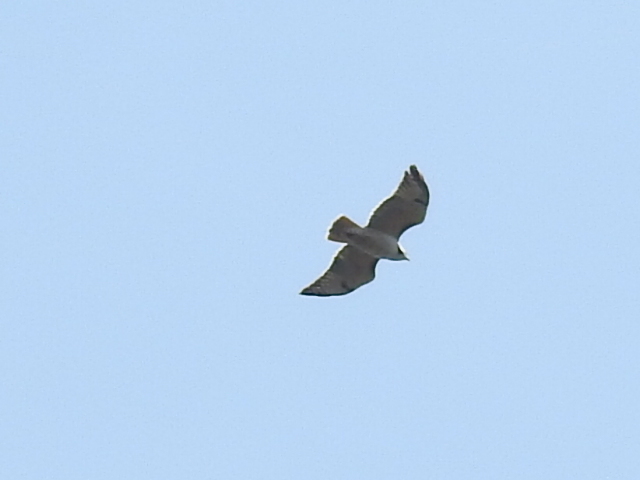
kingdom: Animalia
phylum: Chordata
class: Aves
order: Accipitriformes
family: Accipitridae
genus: Buteo
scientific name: Buteo jamaicensis
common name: Red-tailed hawk
